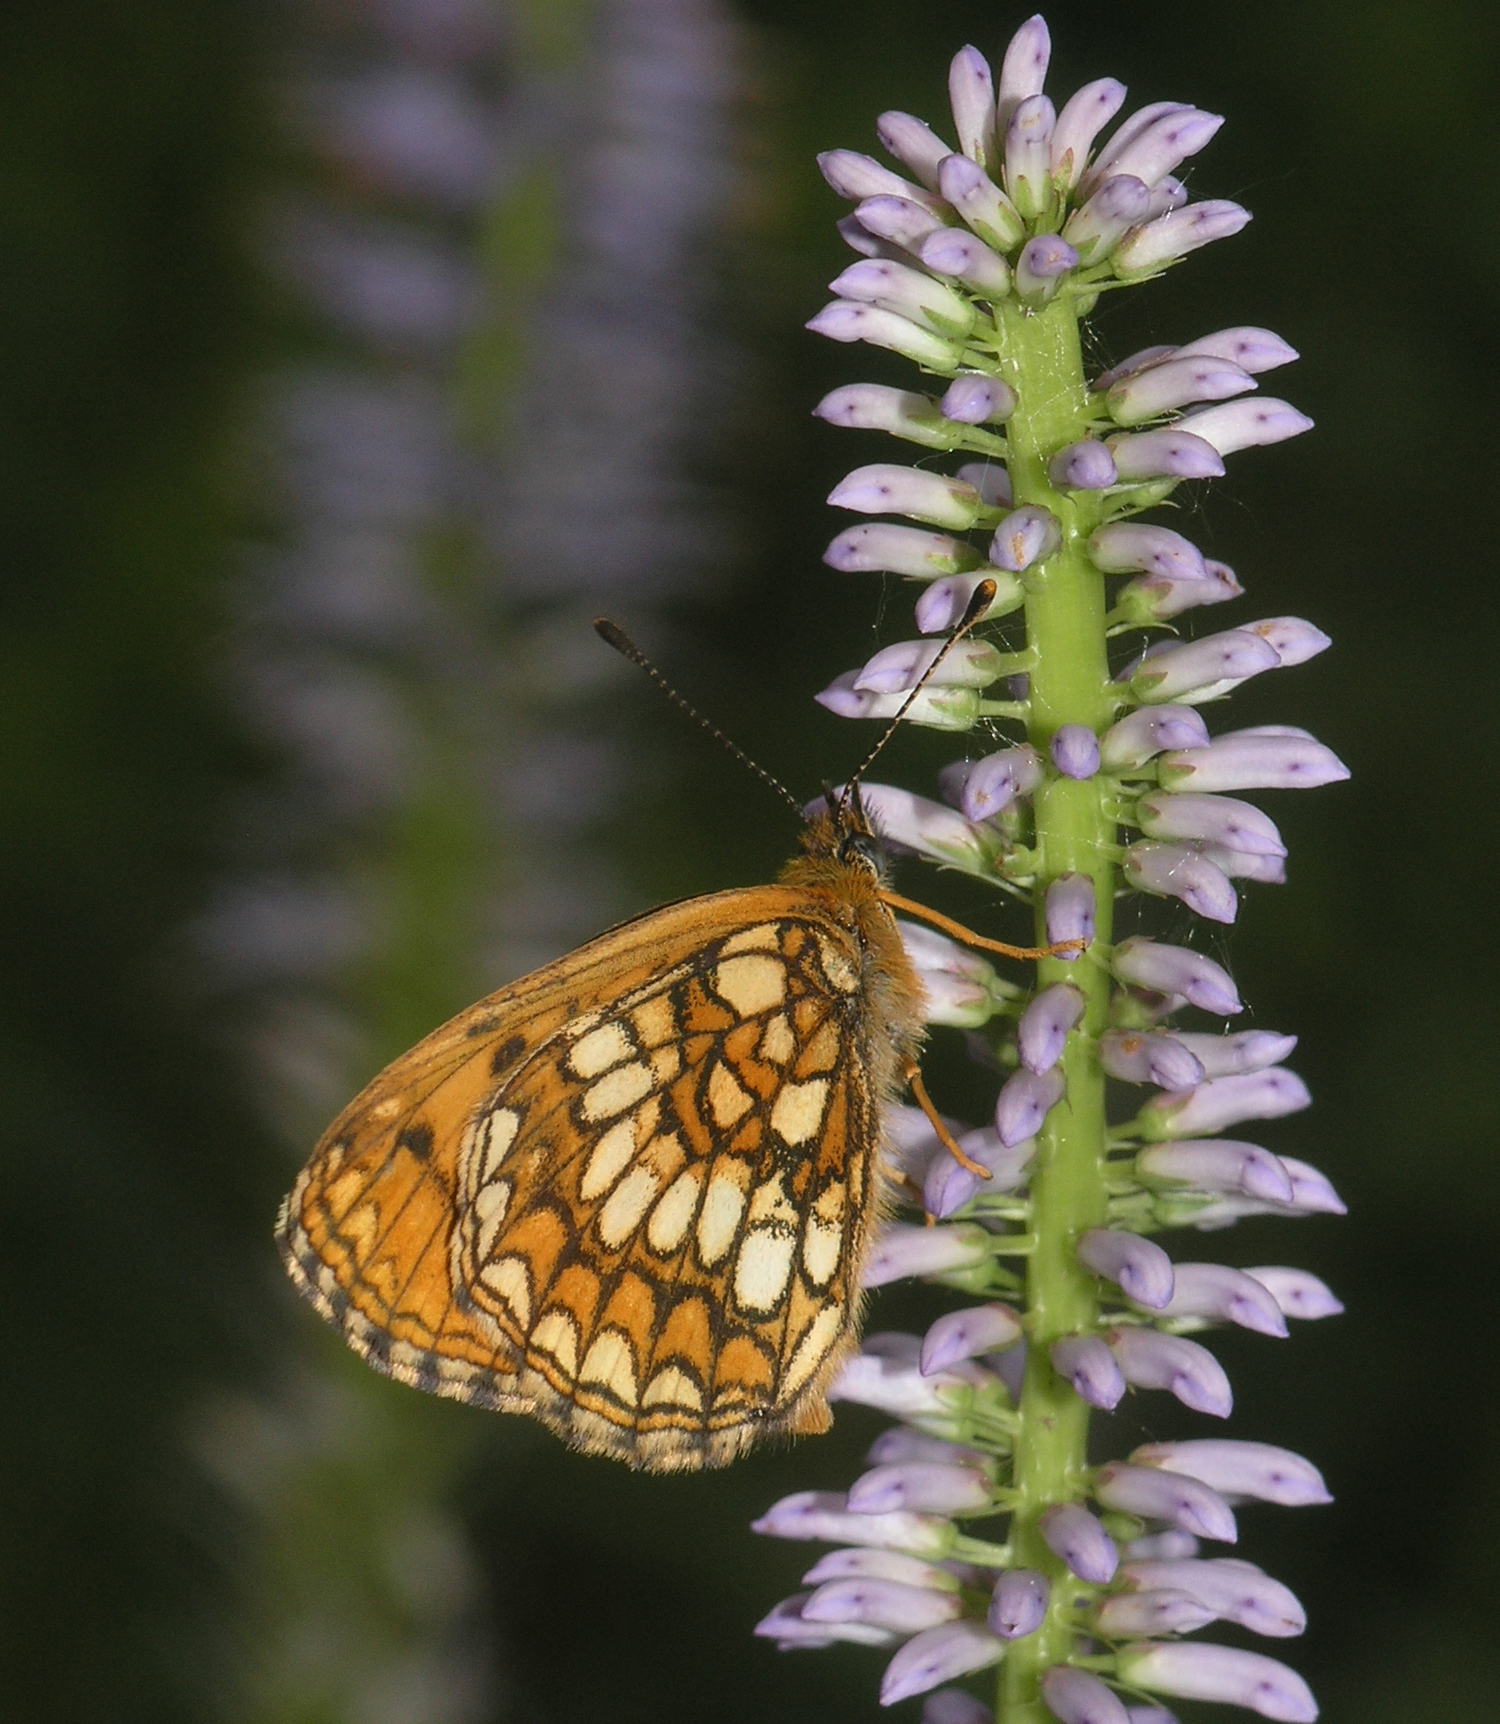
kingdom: Animalia
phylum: Arthropoda
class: Insecta
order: Lepidoptera
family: Nymphalidae
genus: Mellicta
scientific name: Mellicta athalia
